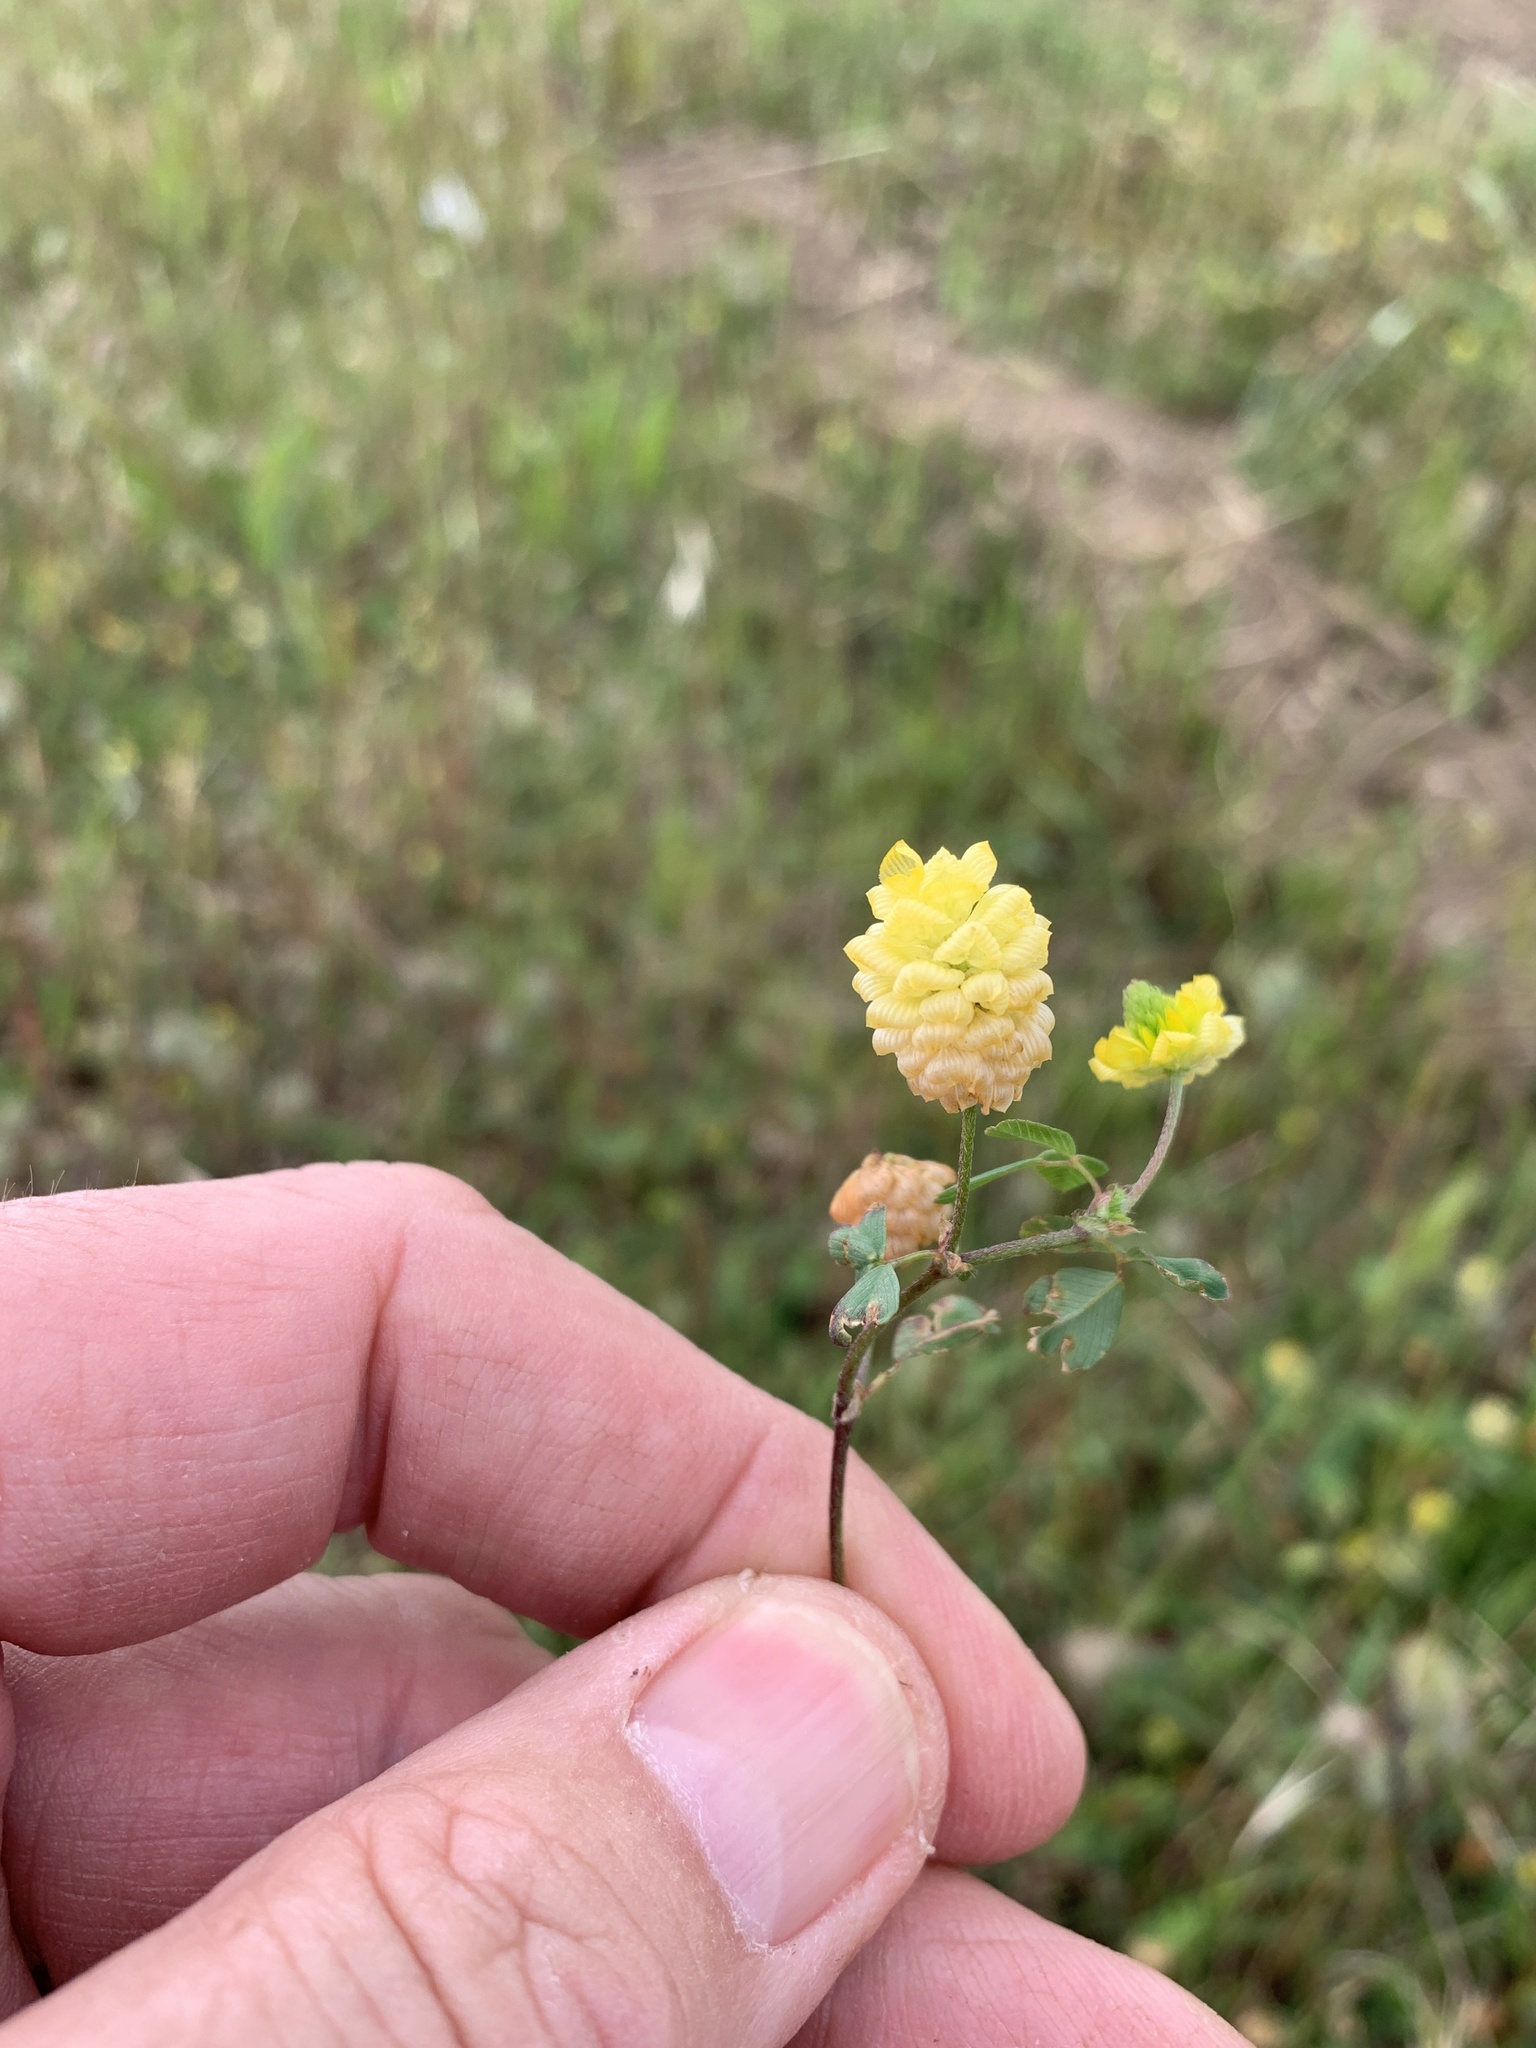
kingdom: Plantae
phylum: Tracheophyta
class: Magnoliopsida
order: Fabales
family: Fabaceae
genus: Trifolium
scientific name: Trifolium campestre
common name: Field clover
